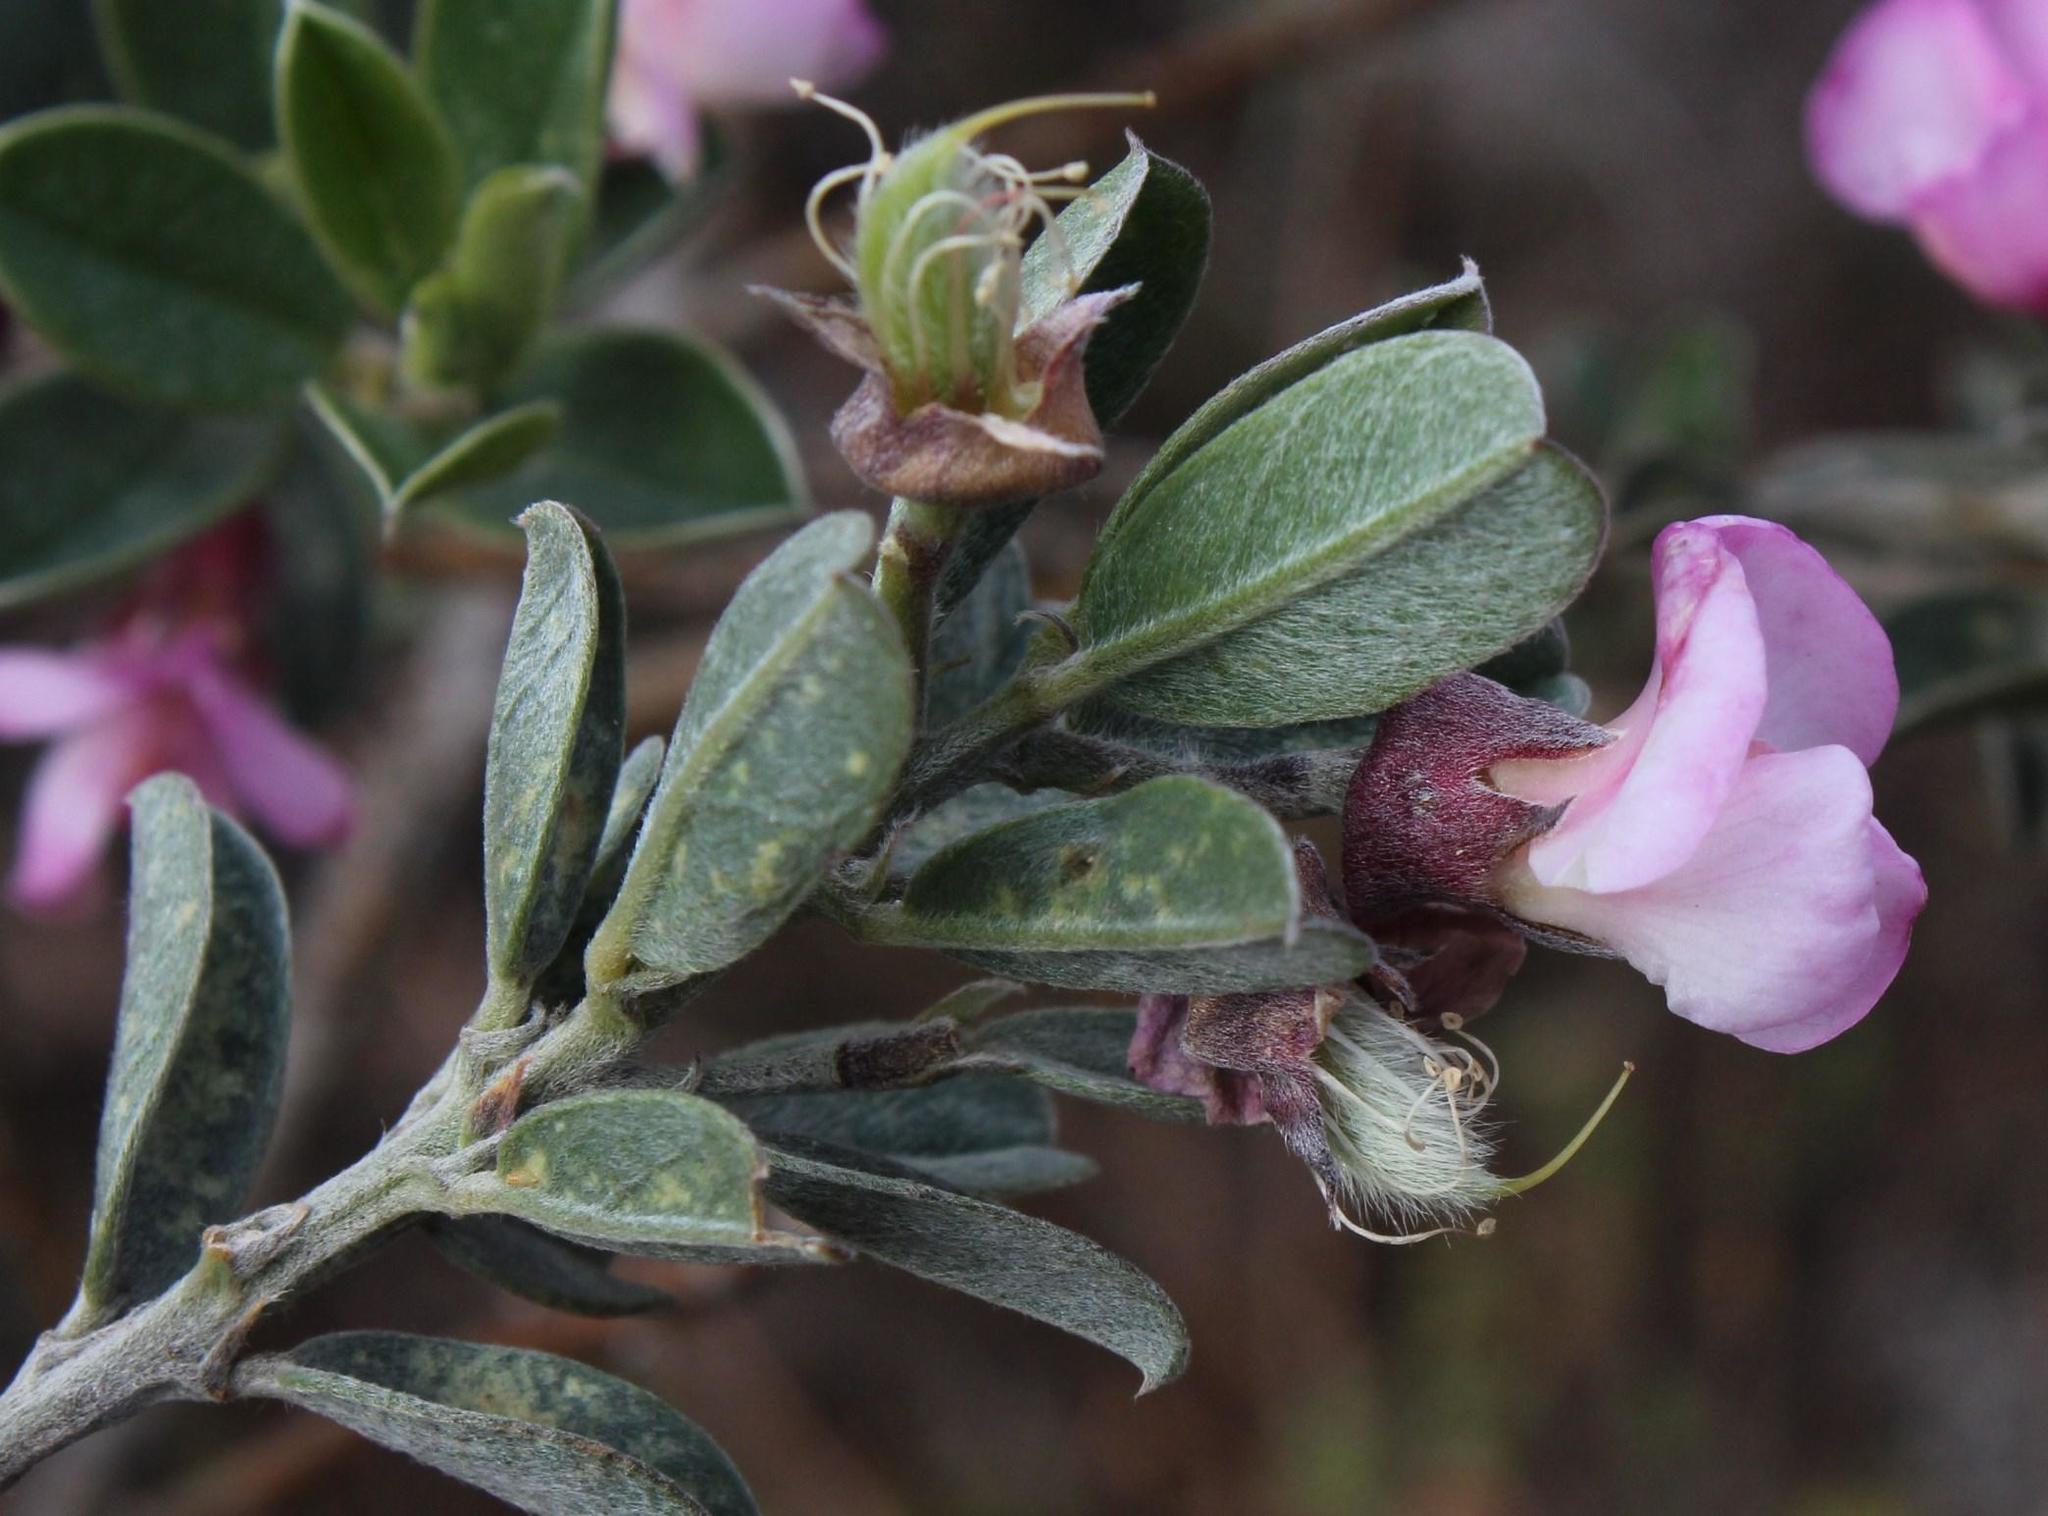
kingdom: Plantae
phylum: Tracheophyta
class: Magnoliopsida
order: Fabales
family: Fabaceae
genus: Podalyria
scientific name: Podalyria myrtillifolia
